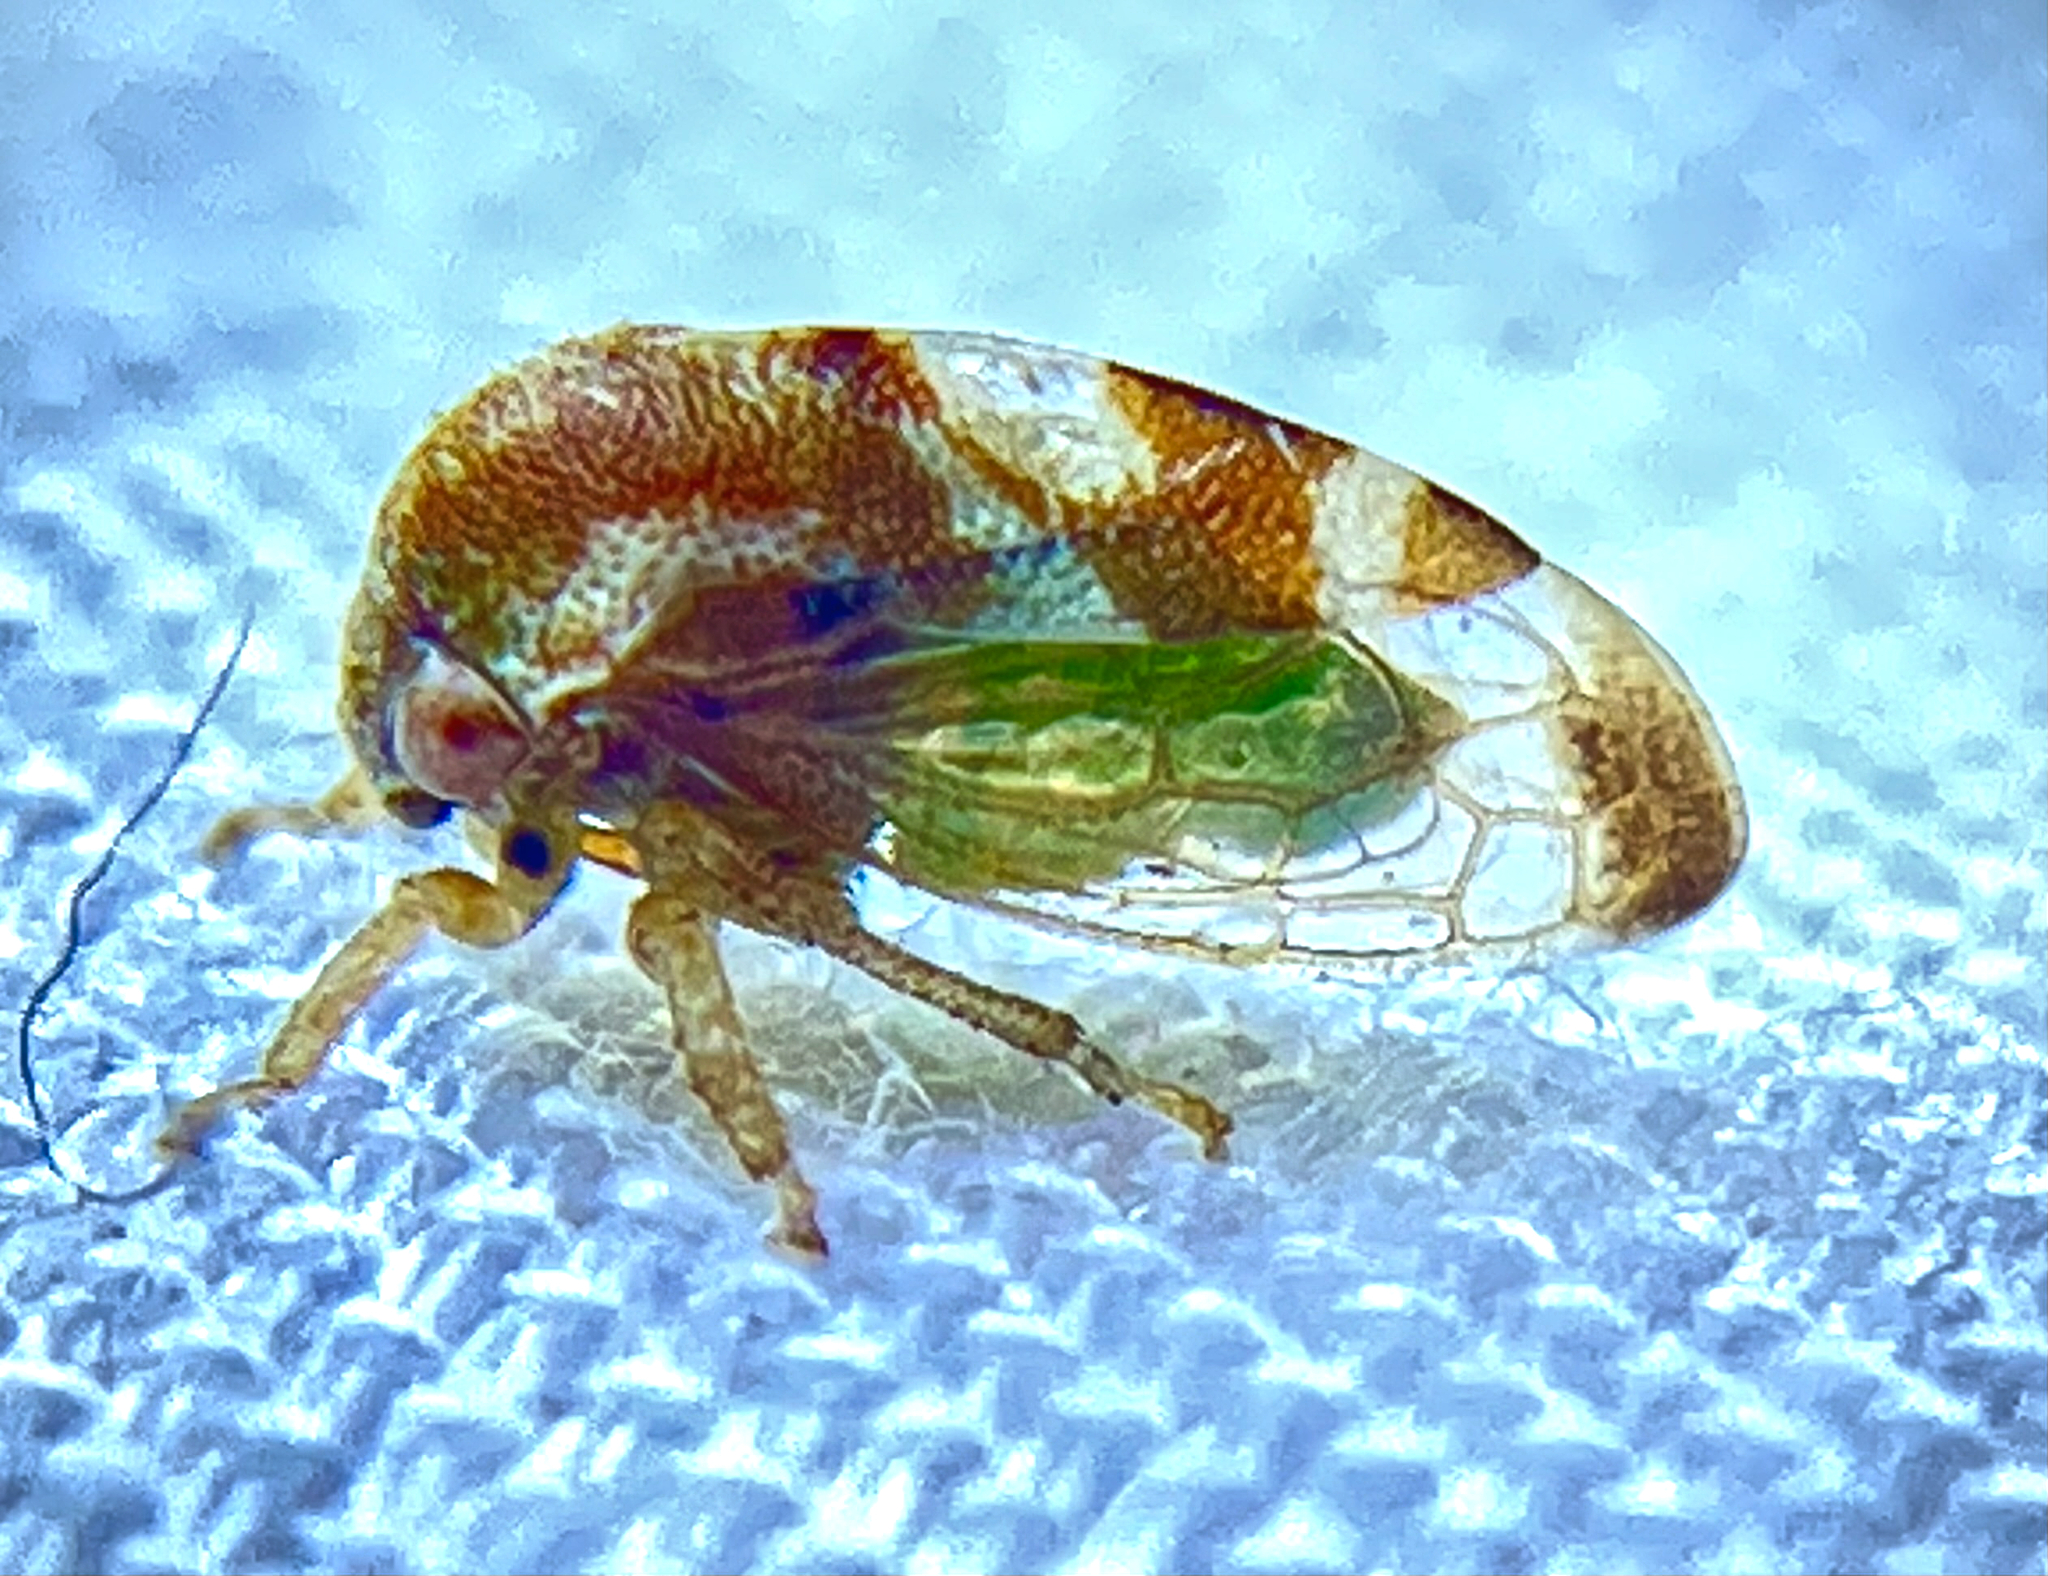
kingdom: Animalia
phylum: Arthropoda
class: Insecta
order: Hemiptera
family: Membracidae
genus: Cyrtolobus
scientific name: Cyrtolobus togatus
